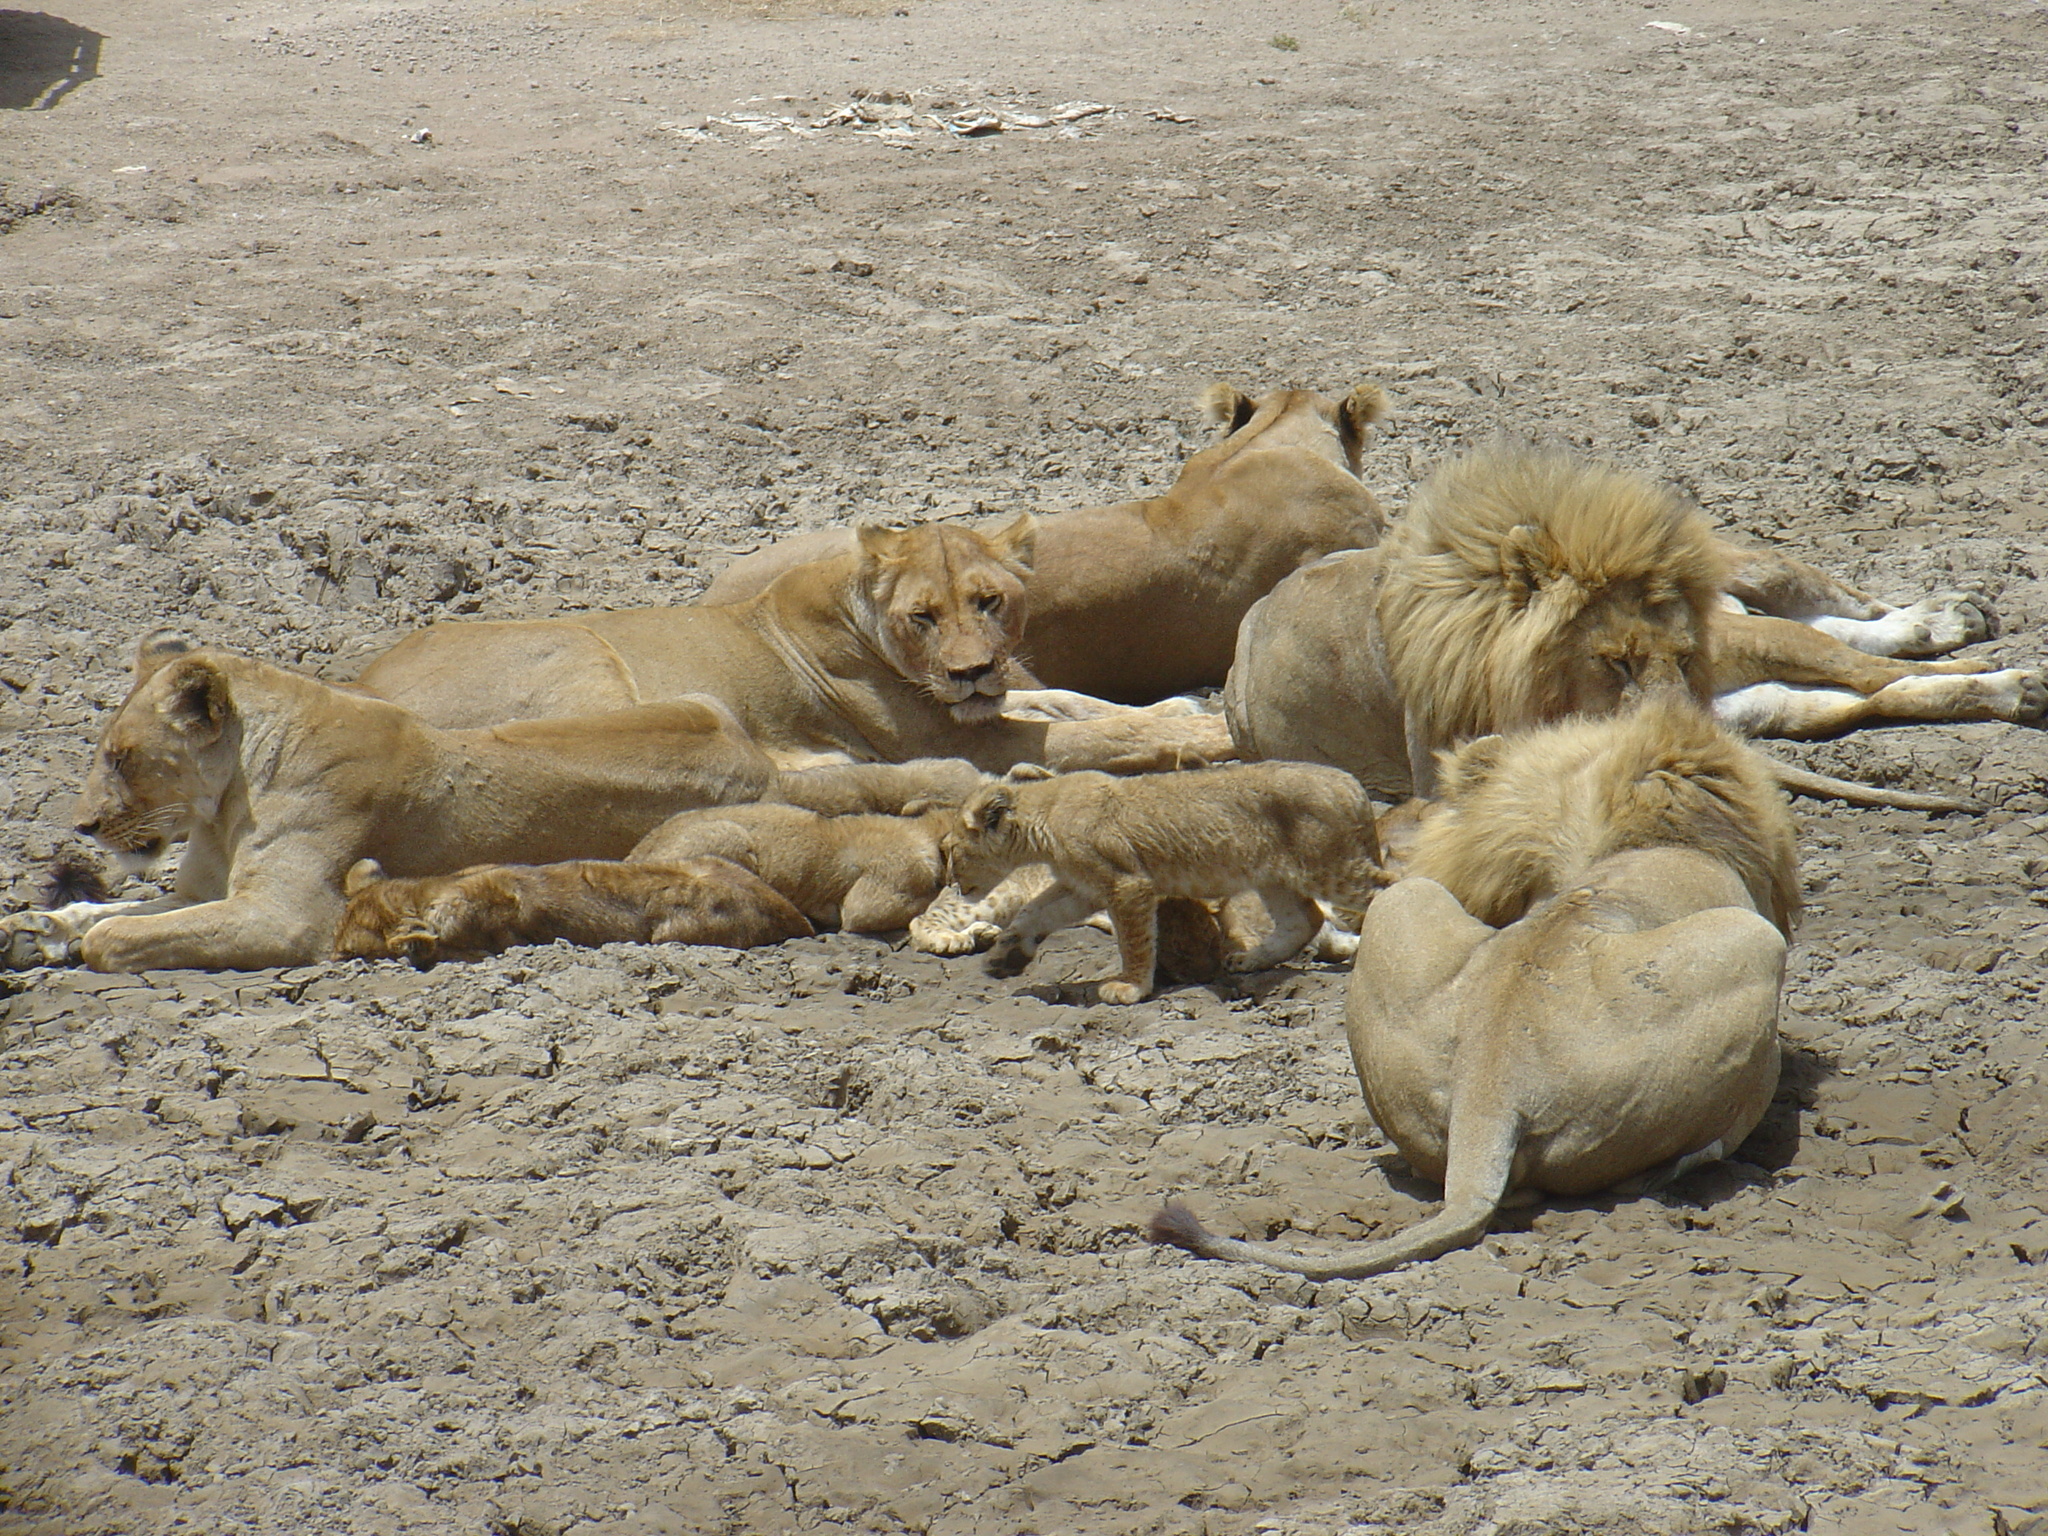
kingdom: Animalia
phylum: Chordata
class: Mammalia
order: Carnivora
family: Felidae
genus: Panthera
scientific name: Panthera leo
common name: Lion
